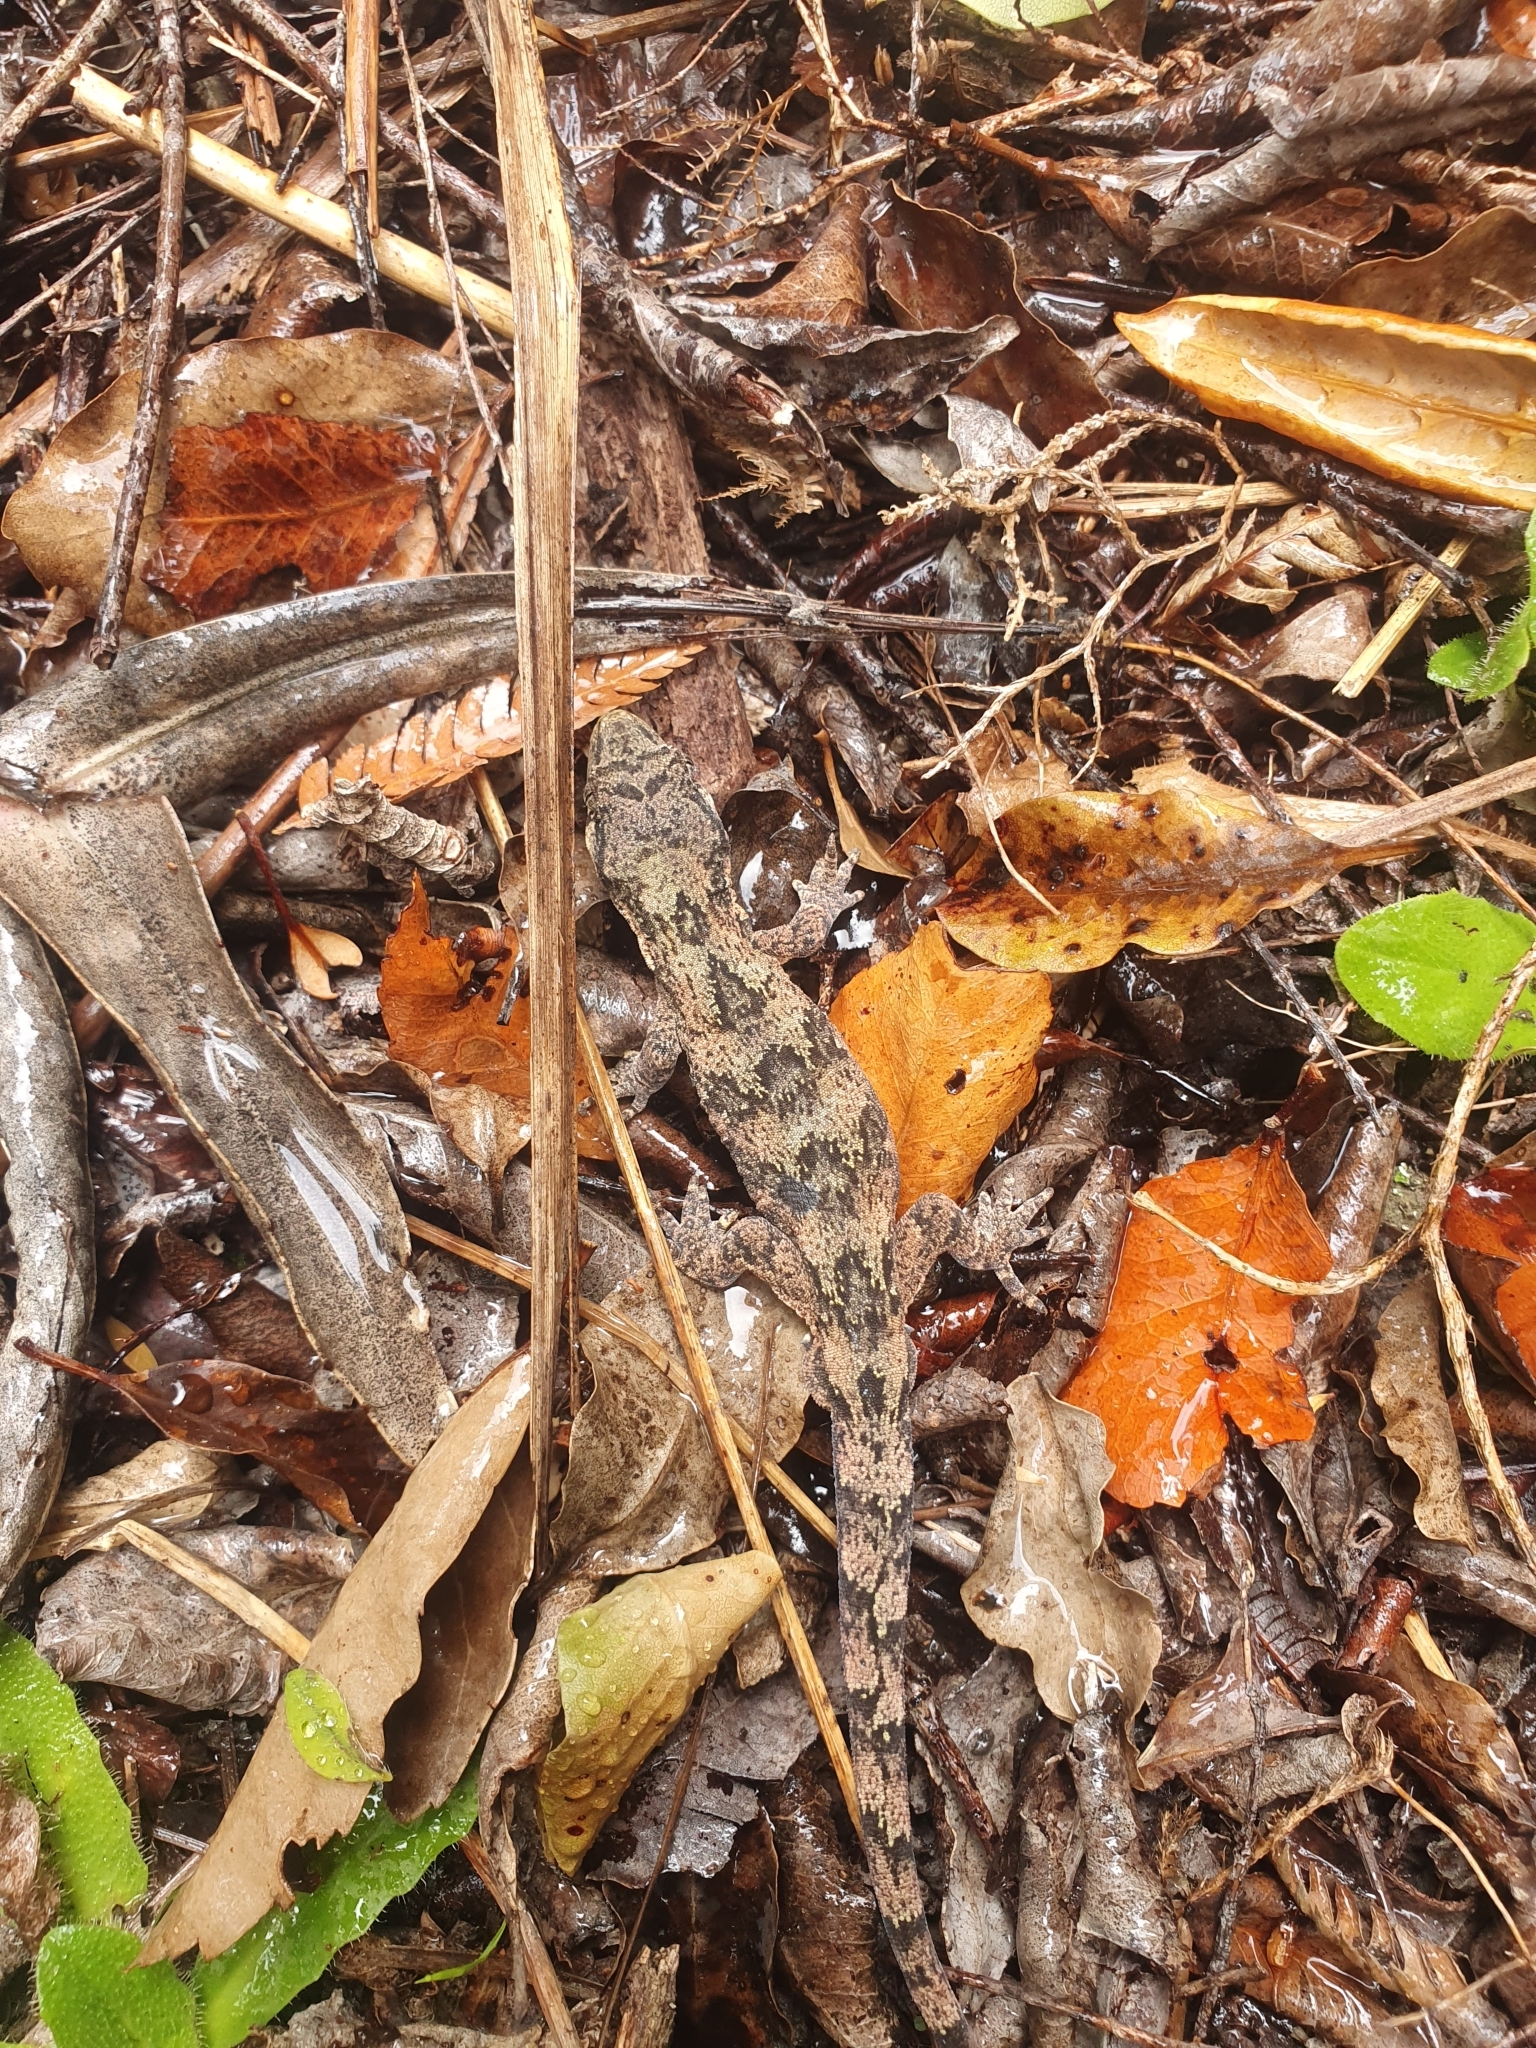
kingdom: Animalia
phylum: Chordata
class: Squamata
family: Diplodactylidae
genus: Mokopirirakau
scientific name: Mokopirirakau granulatus
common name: Forest gecko
